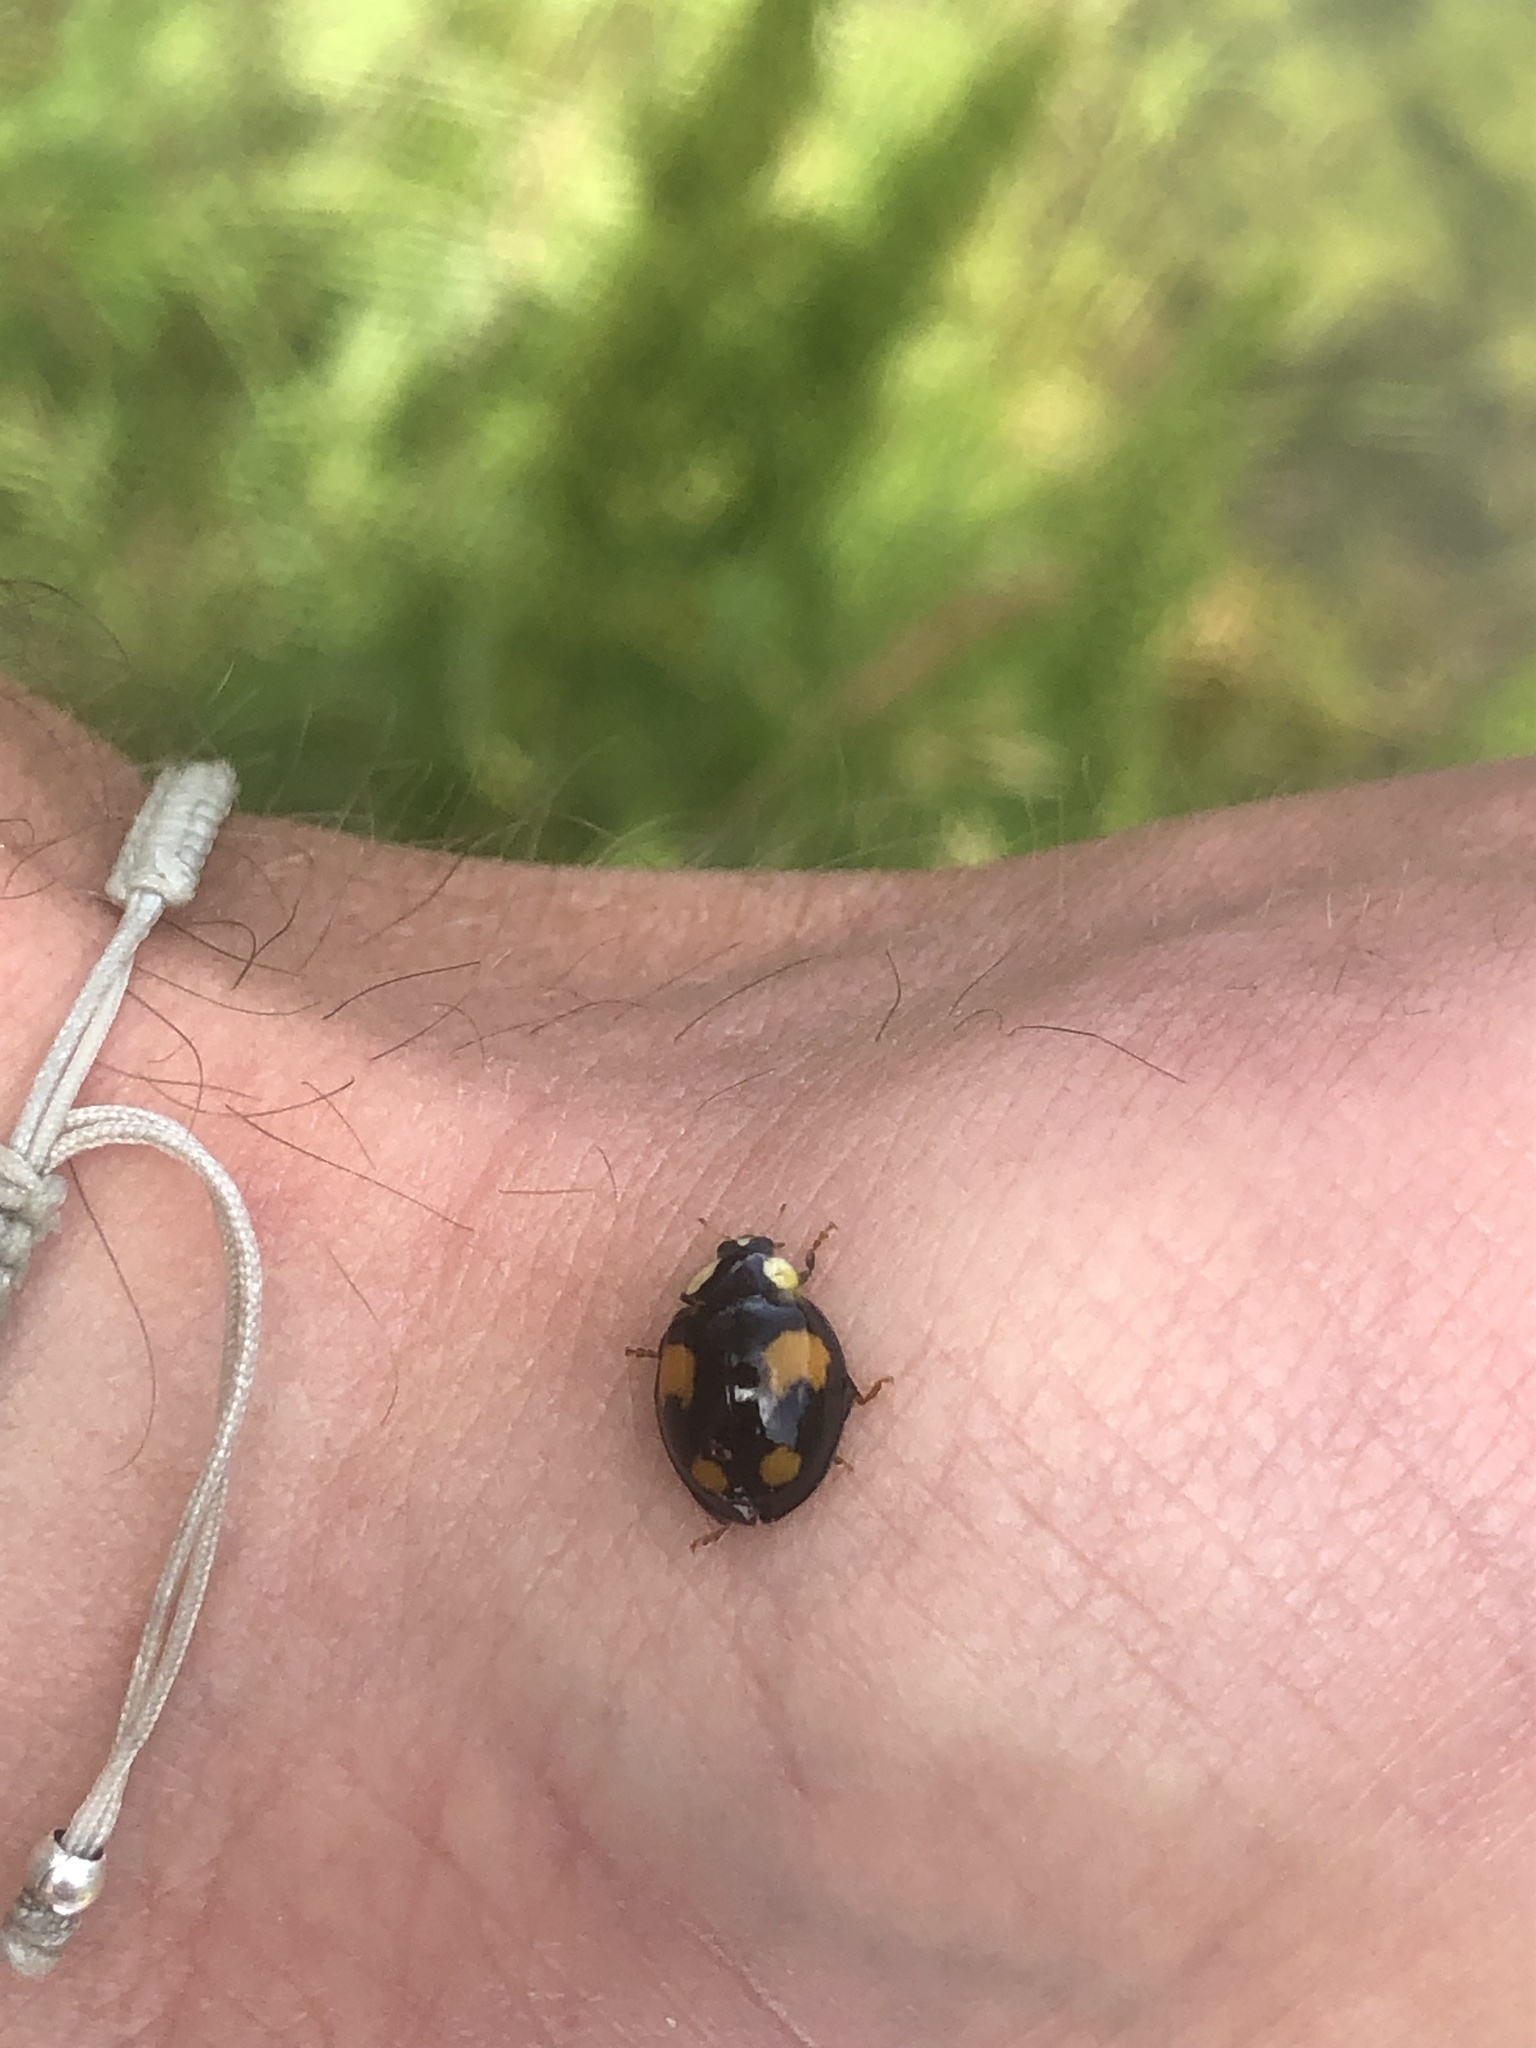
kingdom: Animalia
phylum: Arthropoda
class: Insecta
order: Coleoptera
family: Coccinellidae
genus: Harmonia
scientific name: Harmonia axyridis
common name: Harlequin ladybird
